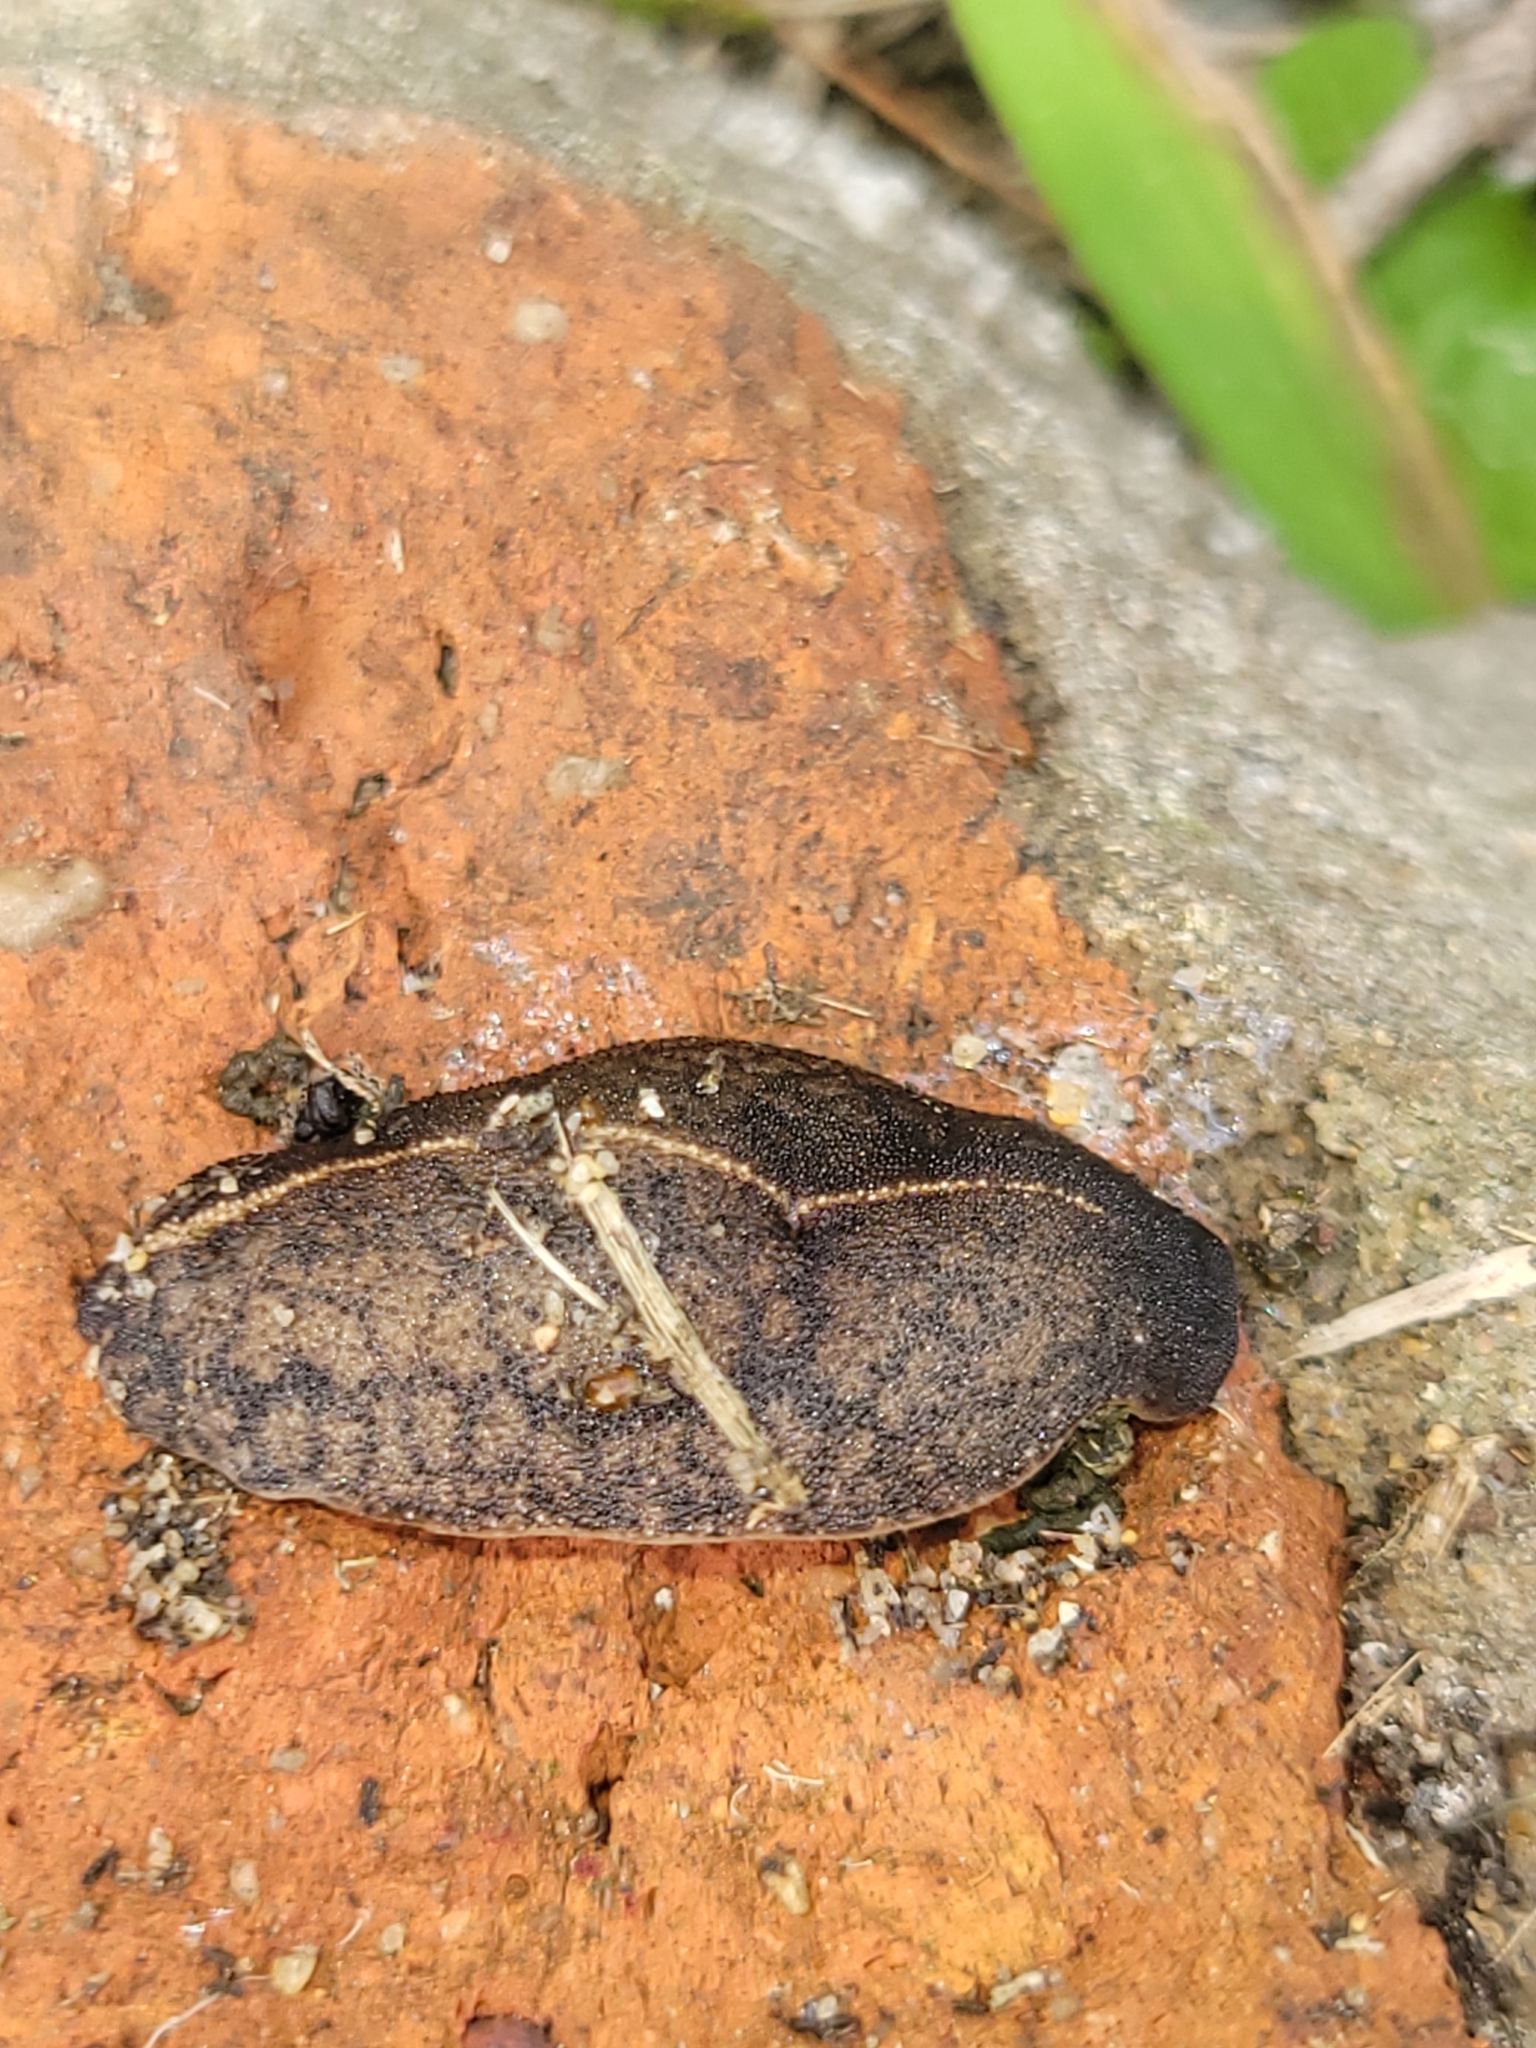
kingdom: Animalia
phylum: Mollusca
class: Gastropoda
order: Systellommatophora
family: Veronicellidae
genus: Laevicaulis
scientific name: Laevicaulis alte
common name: Tropical leatherleaf
